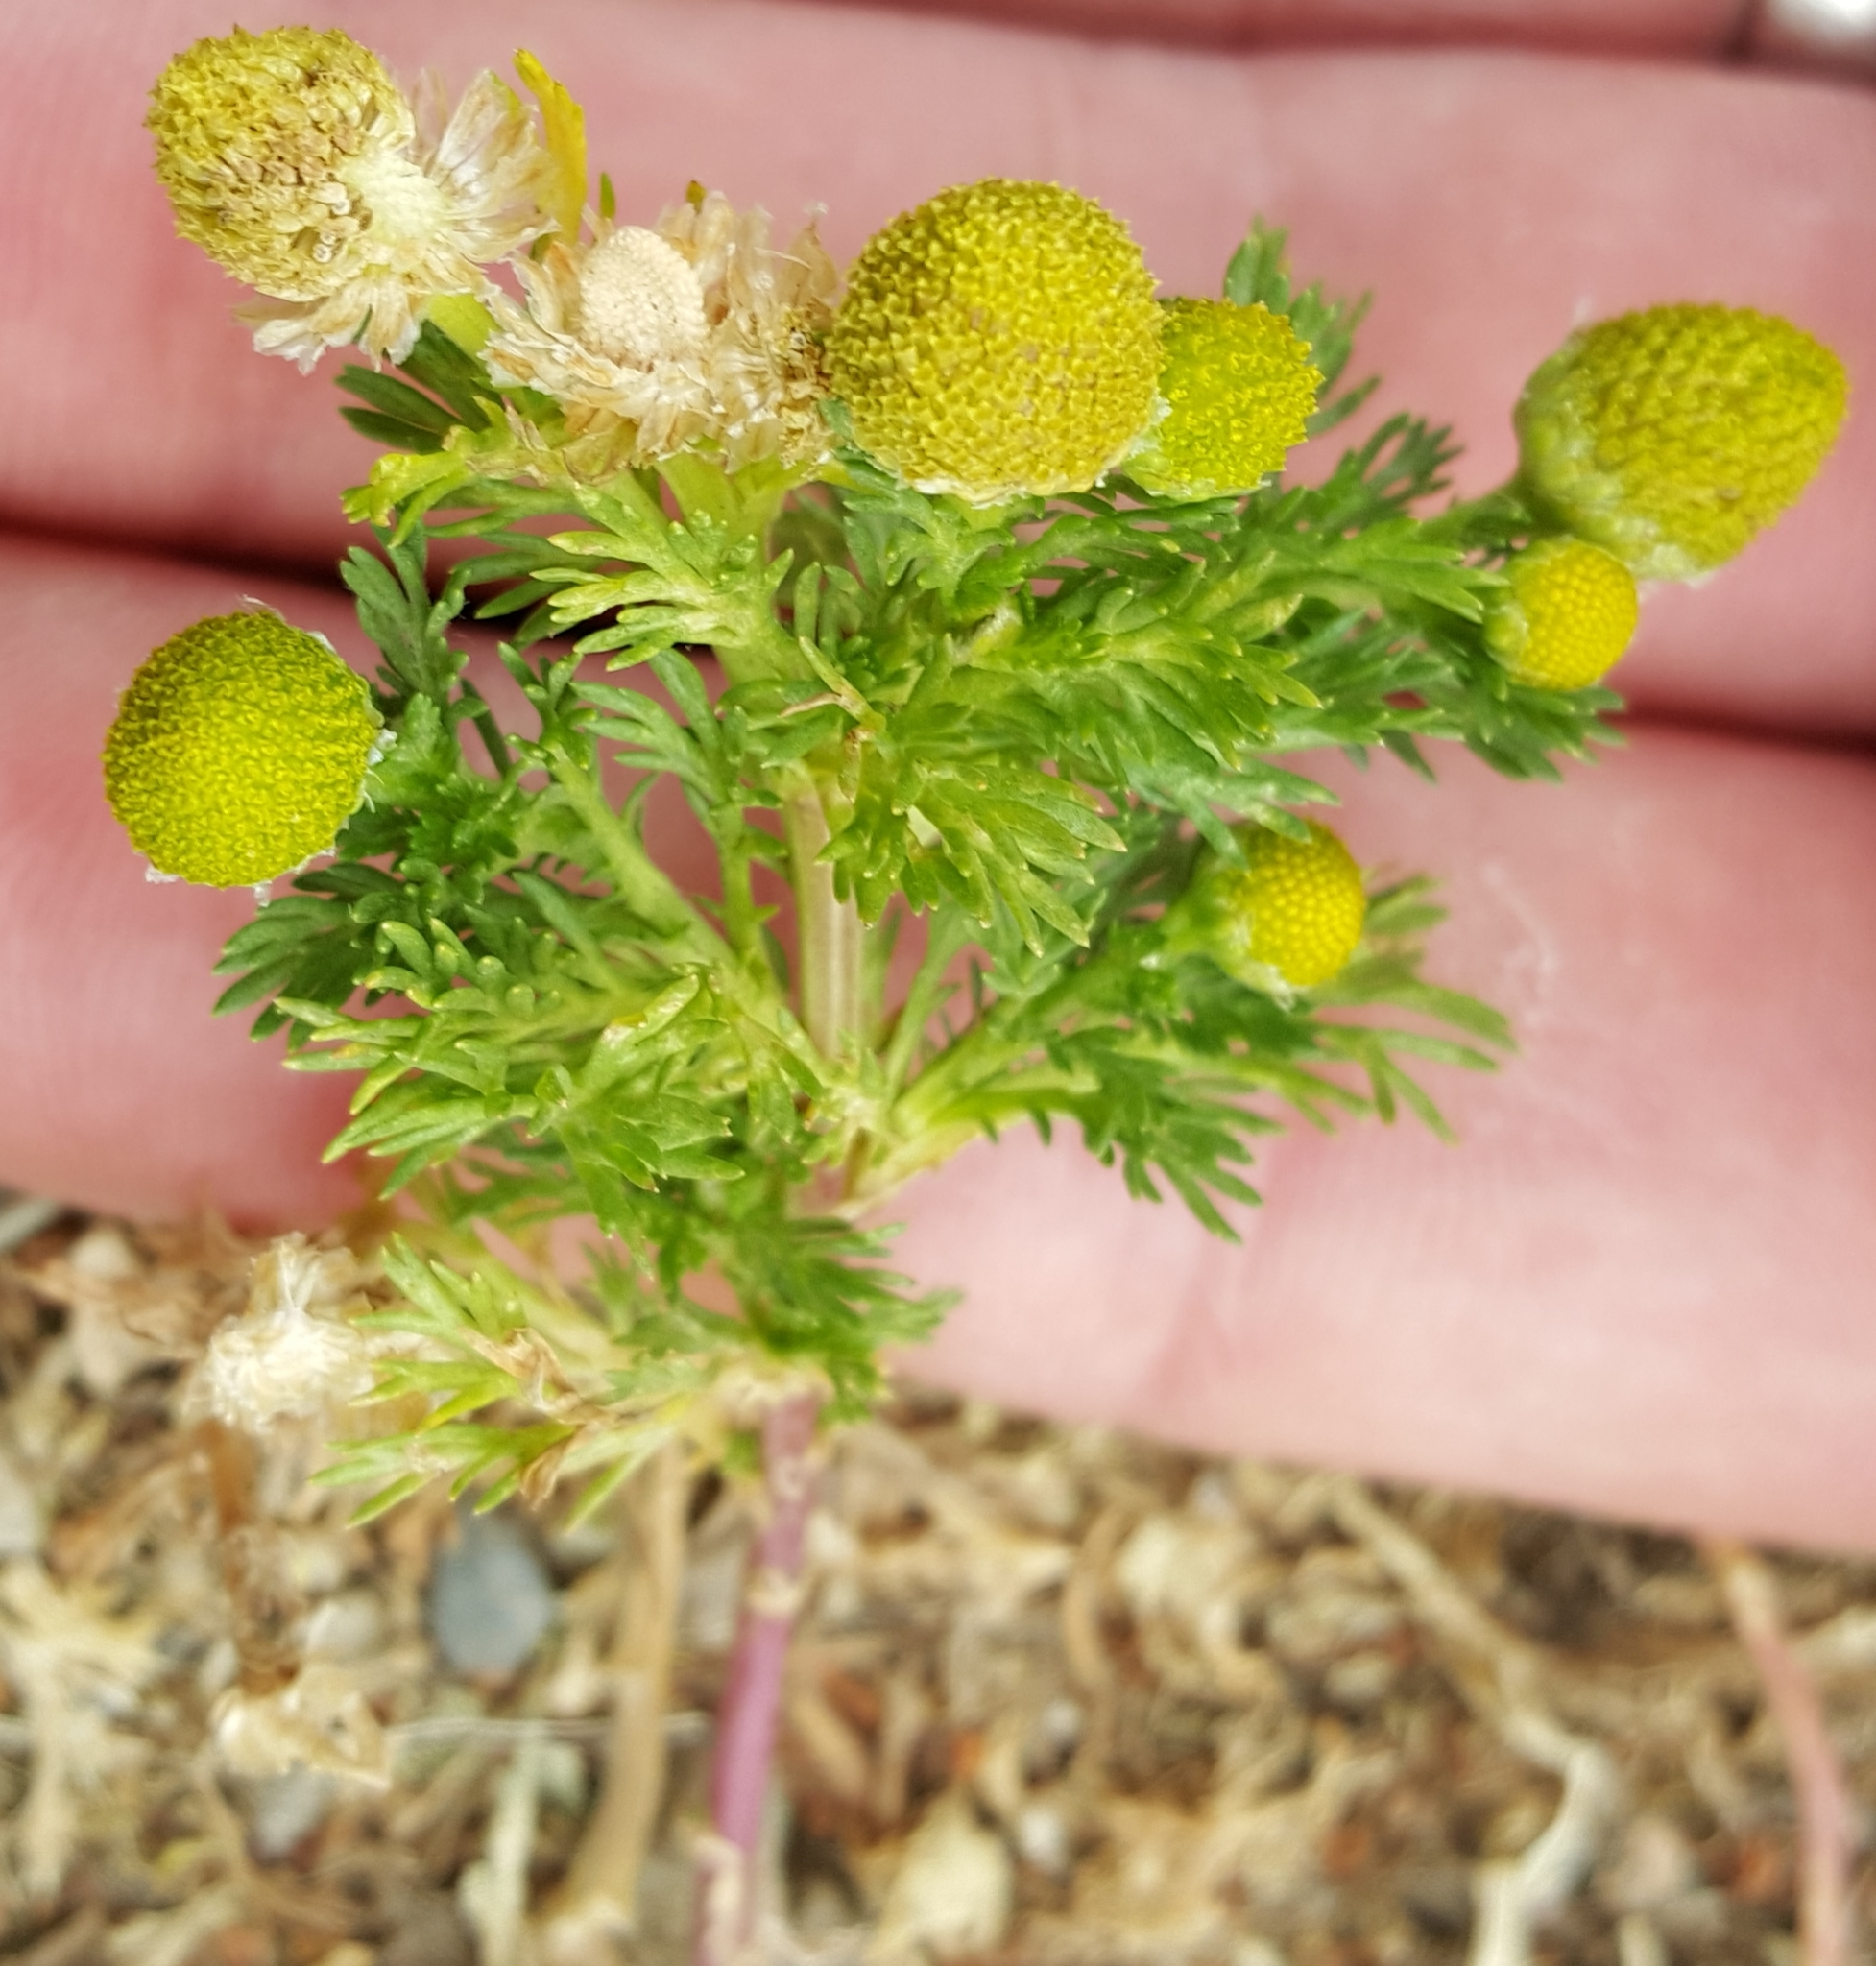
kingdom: Plantae
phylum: Tracheophyta
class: Magnoliopsida
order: Asterales
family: Asteraceae
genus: Matricaria
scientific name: Matricaria discoidea
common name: Disc mayweed
